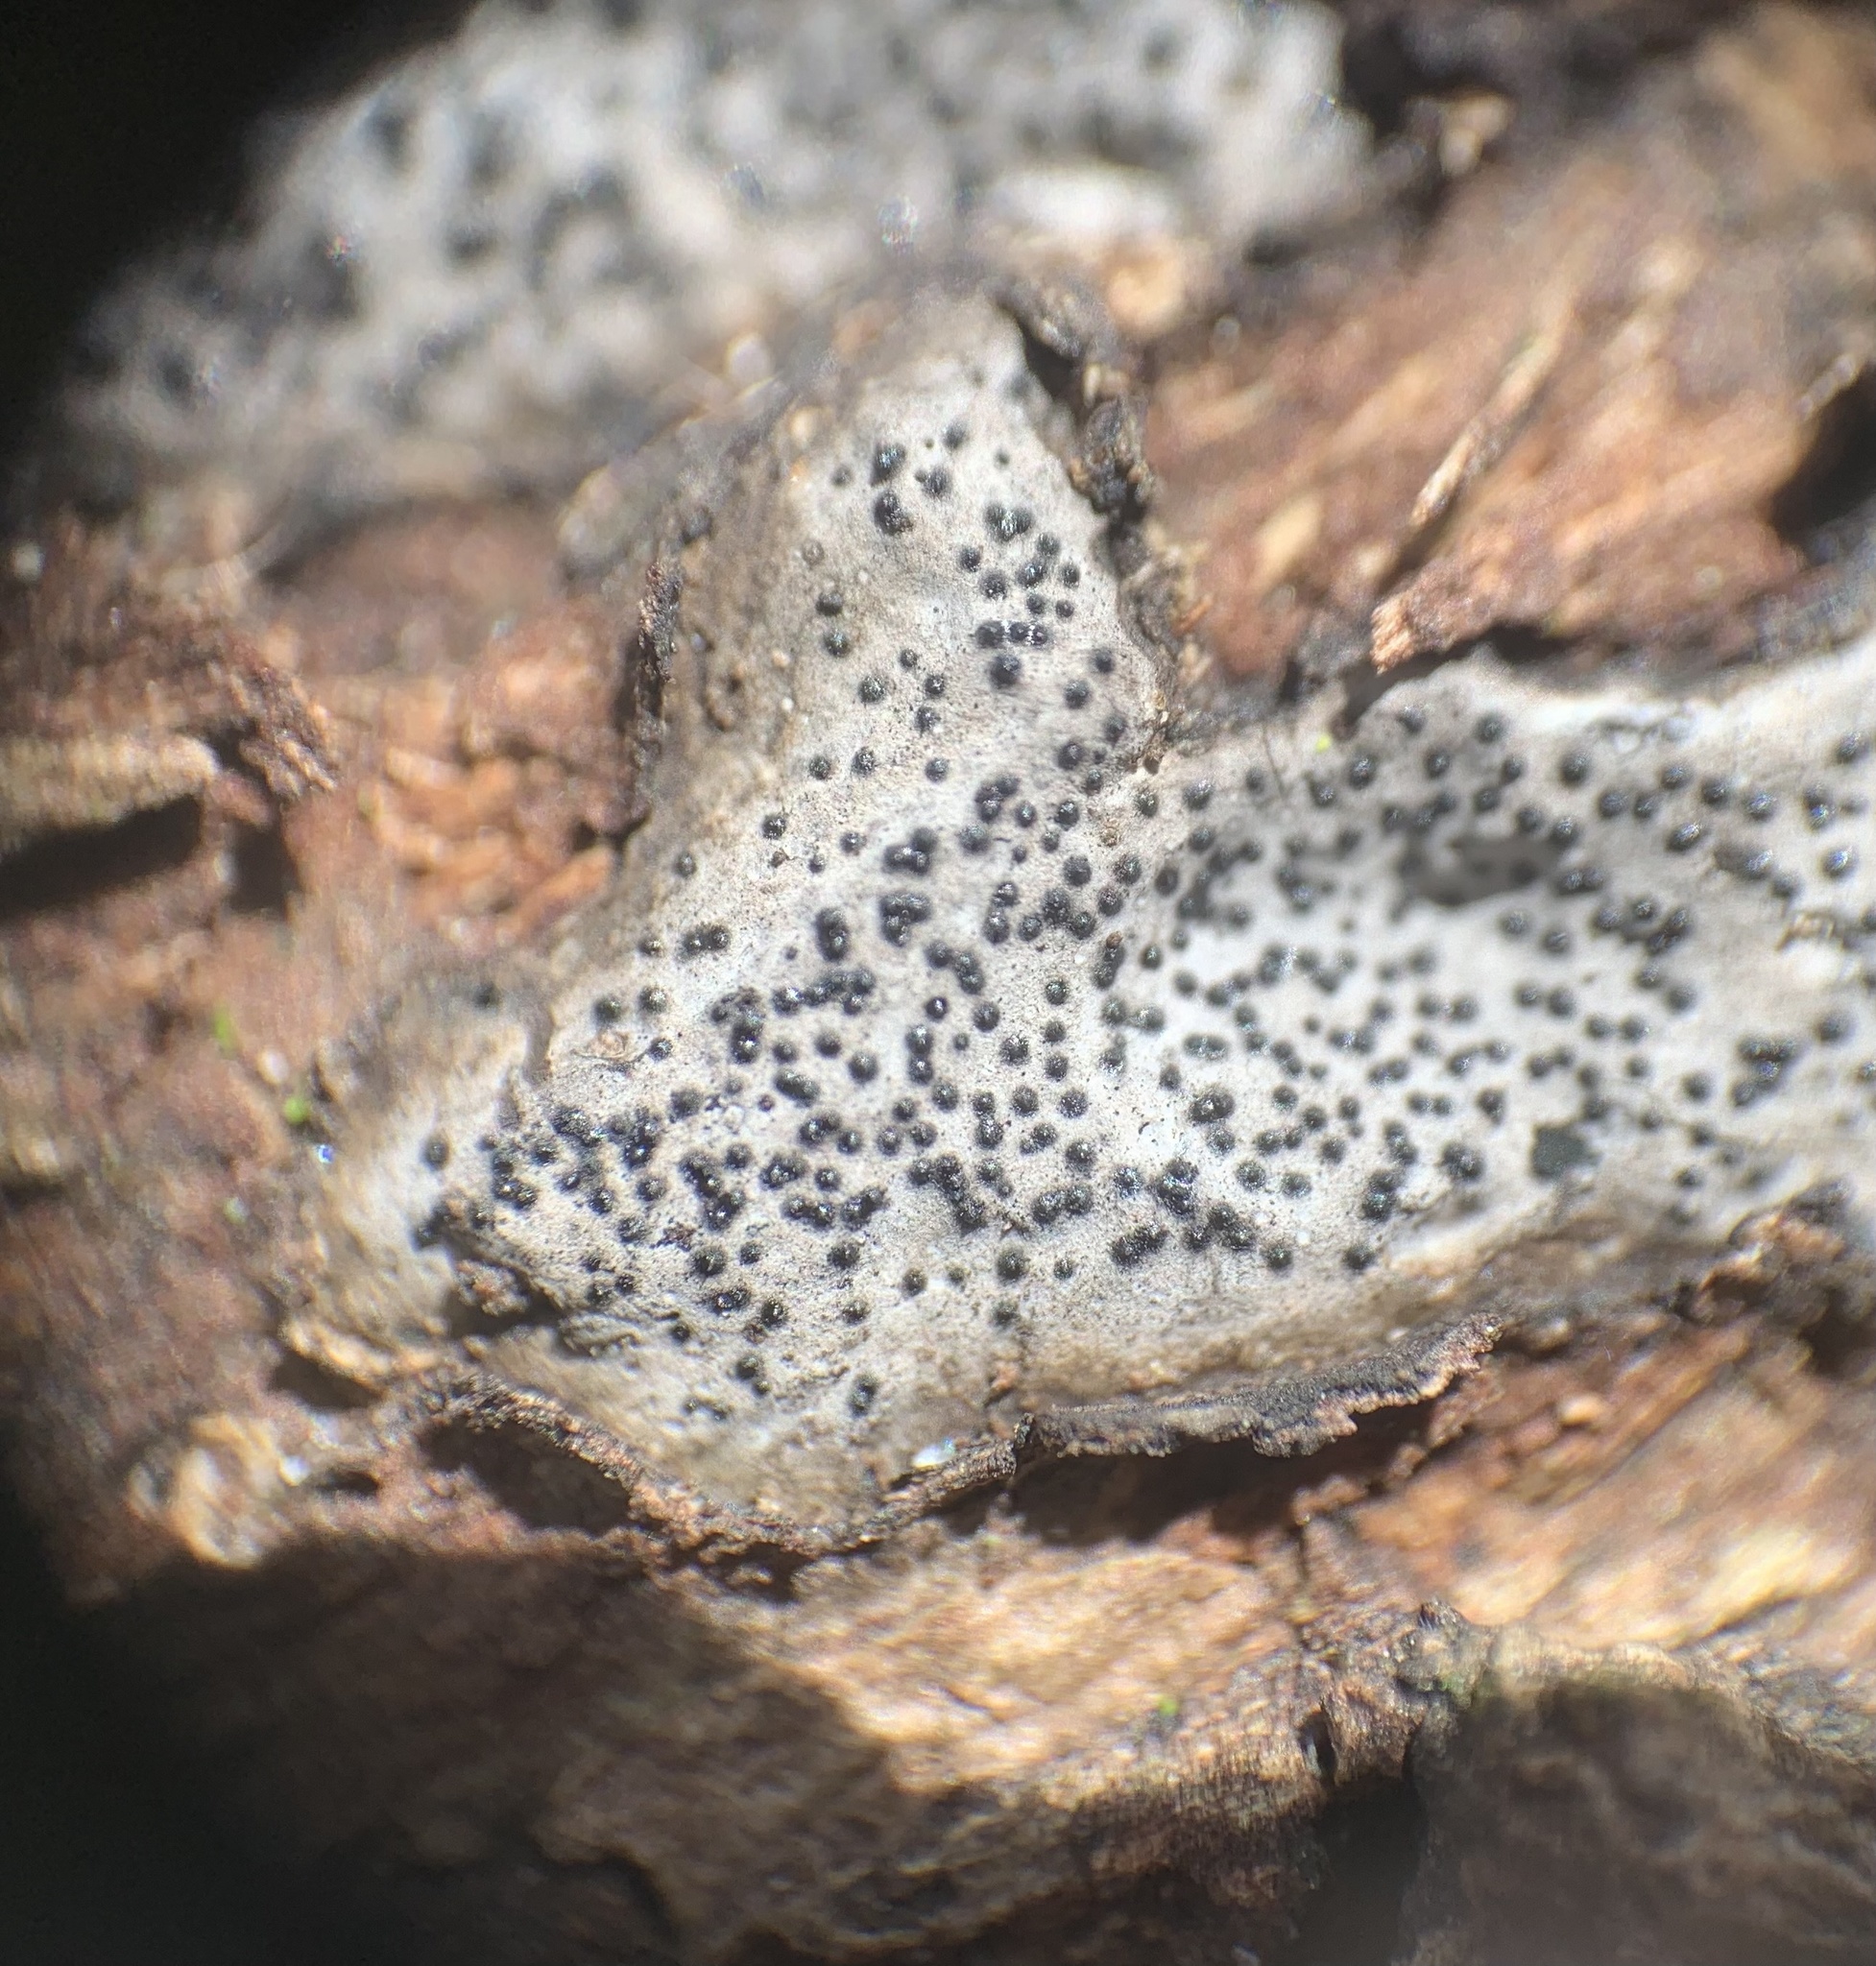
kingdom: Fungi
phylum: Ascomycota
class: Sordariomycetes
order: Xylariales
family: Graphostromataceae
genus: Biscogniauxia
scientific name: Biscogniauxia atropunctata
